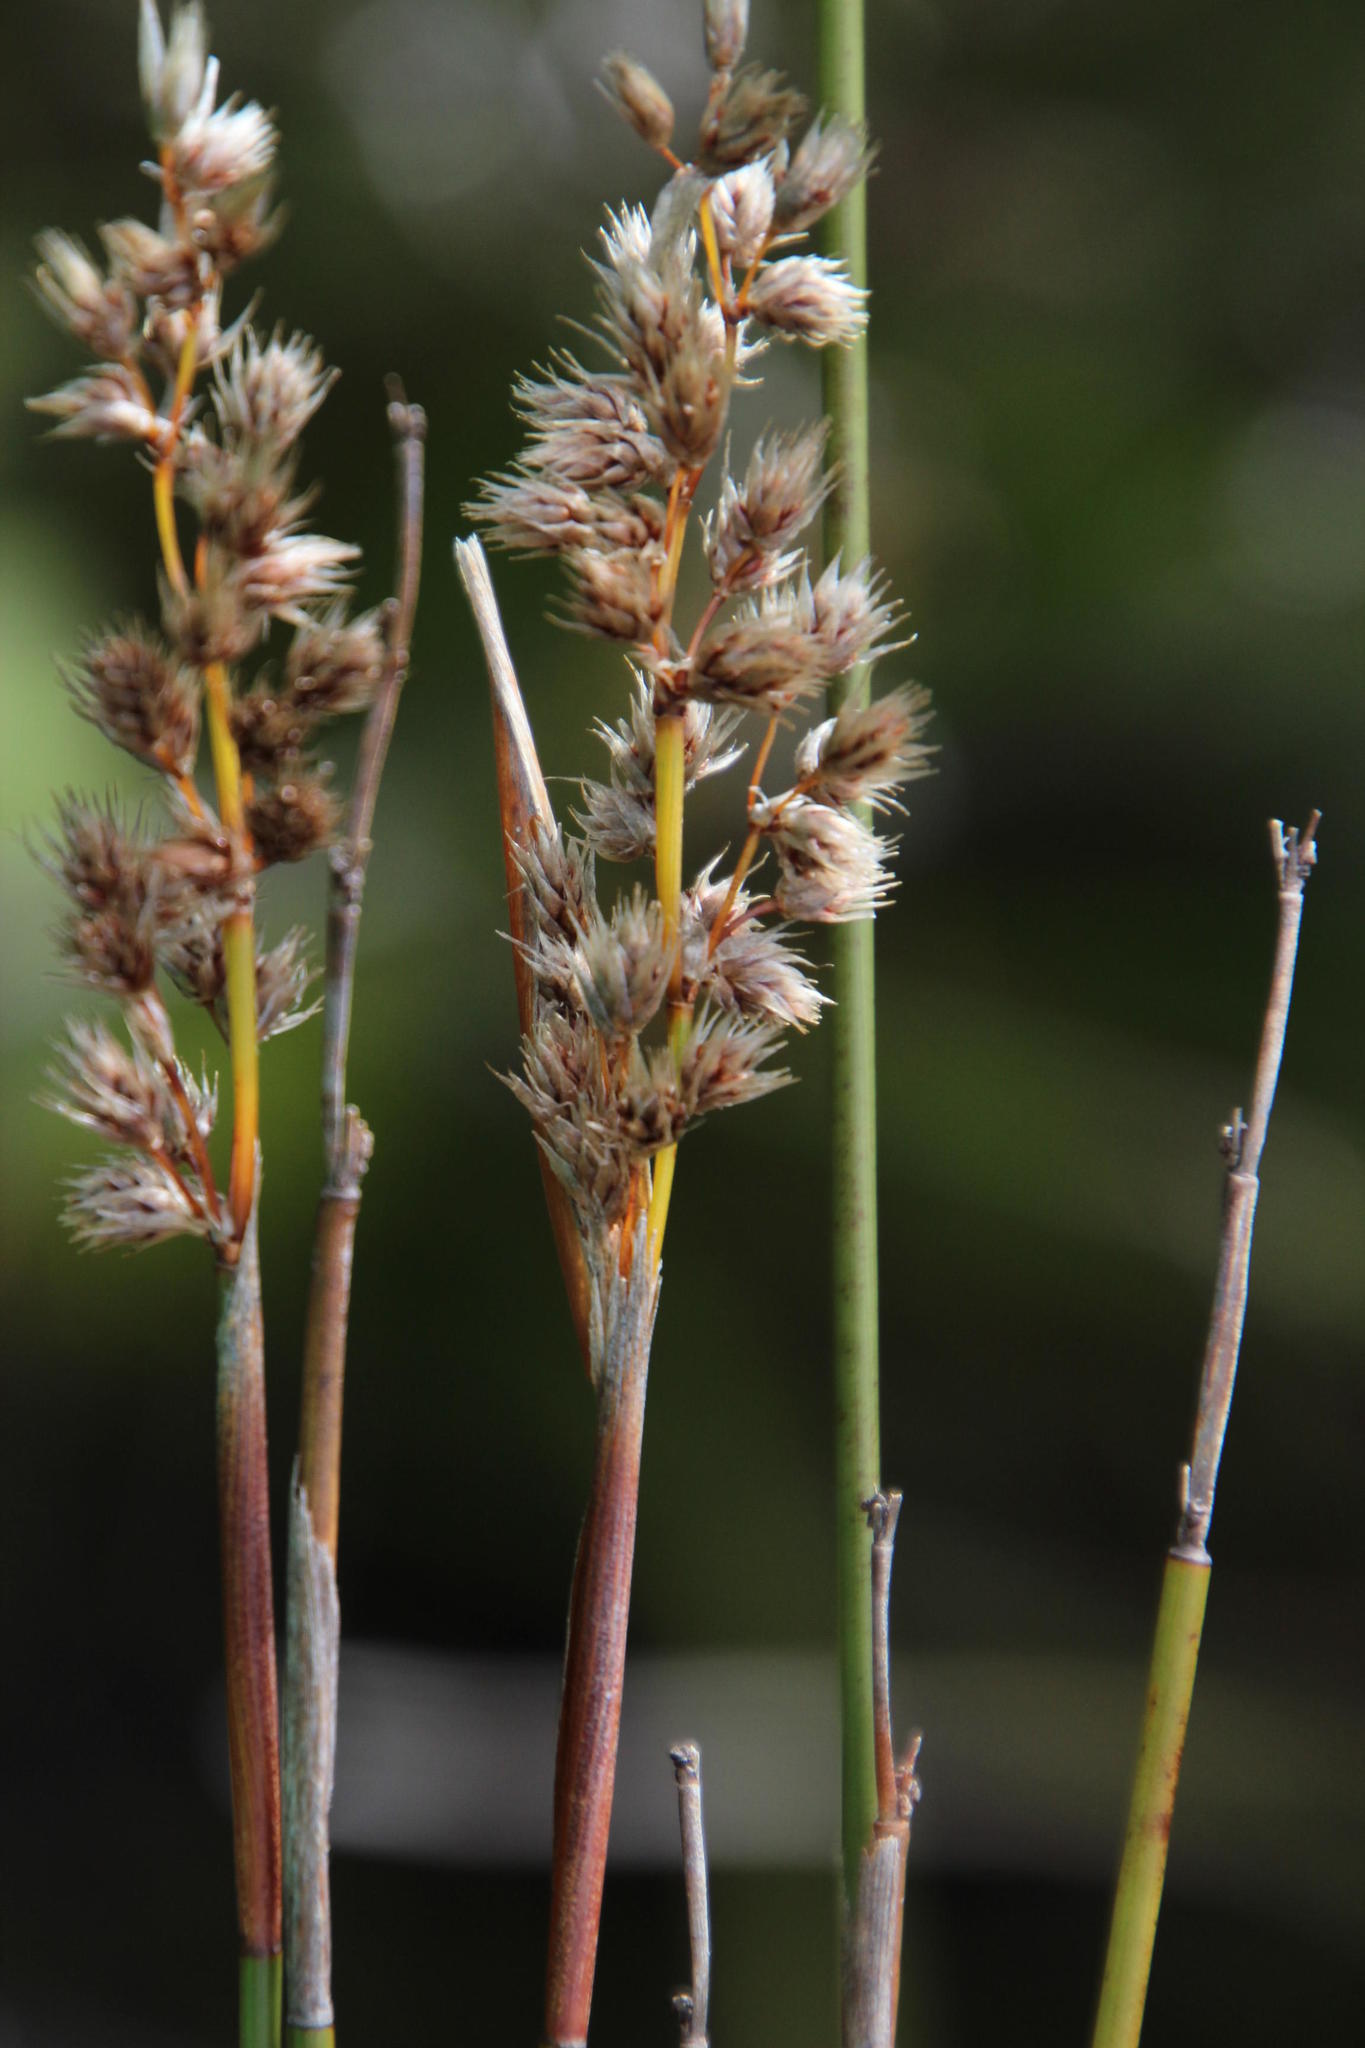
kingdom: Plantae
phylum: Tracheophyta
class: Liliopsida
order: Poales
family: Restionaceae
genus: Hypodiscus
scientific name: Hypodiscus argenteus
